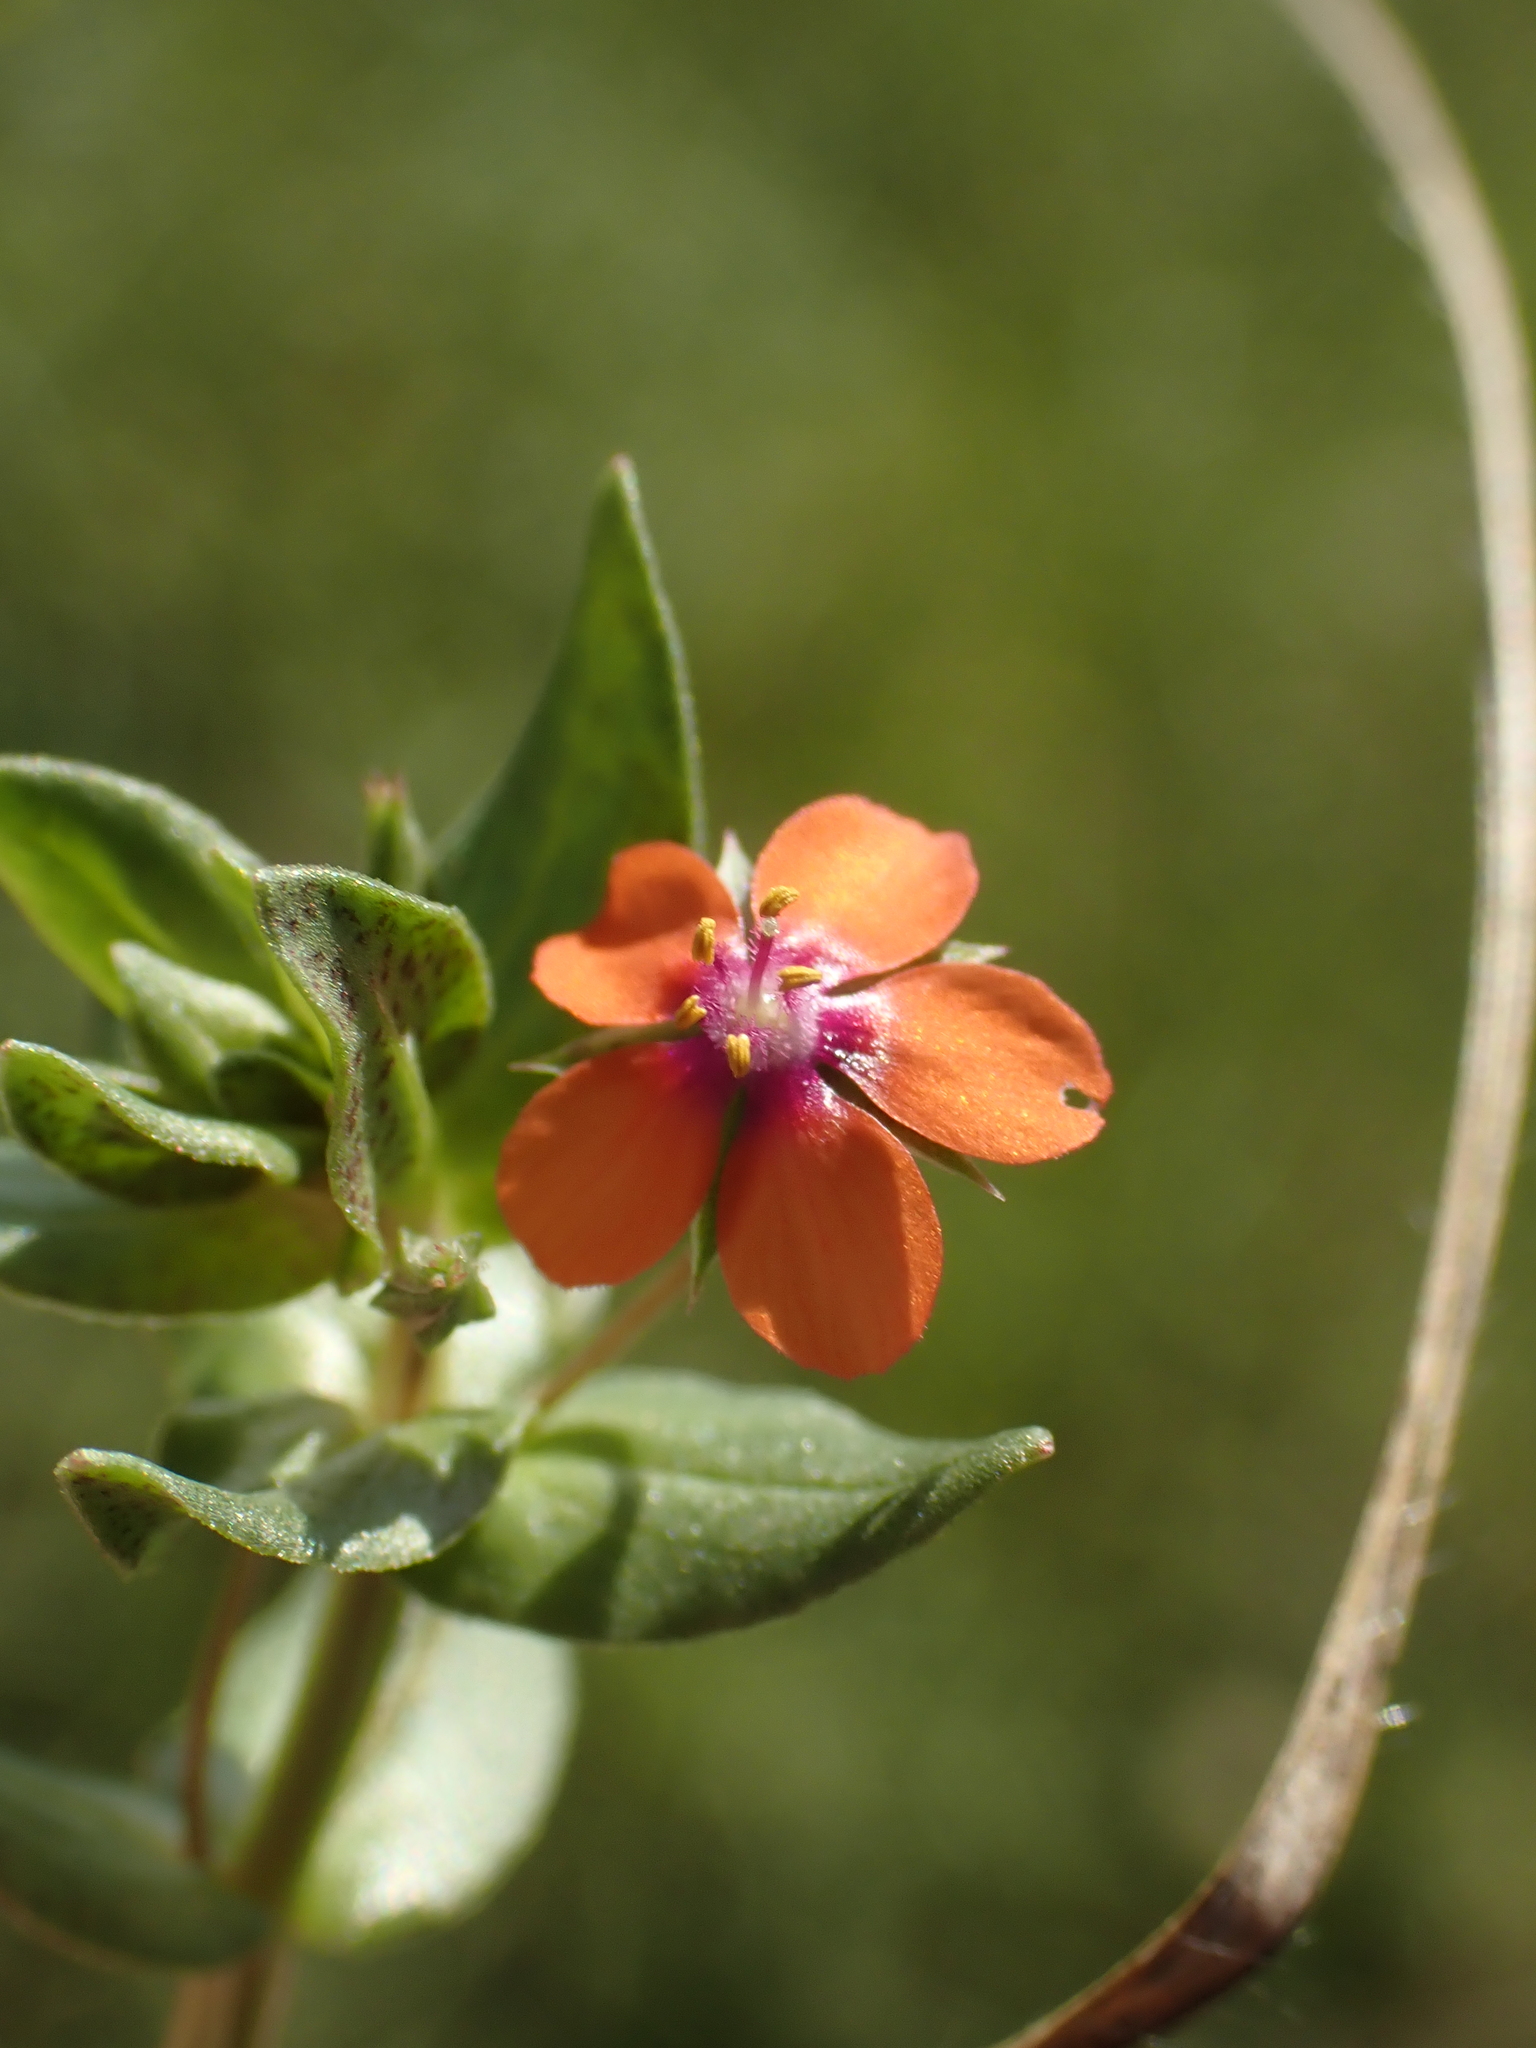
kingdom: Plantae
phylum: Tracheophyta
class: Magnoliopsida
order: Ericales
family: Primulaceae
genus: Lysimachia
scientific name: Lysimachia arvensis
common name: Scarlet pimpernel
